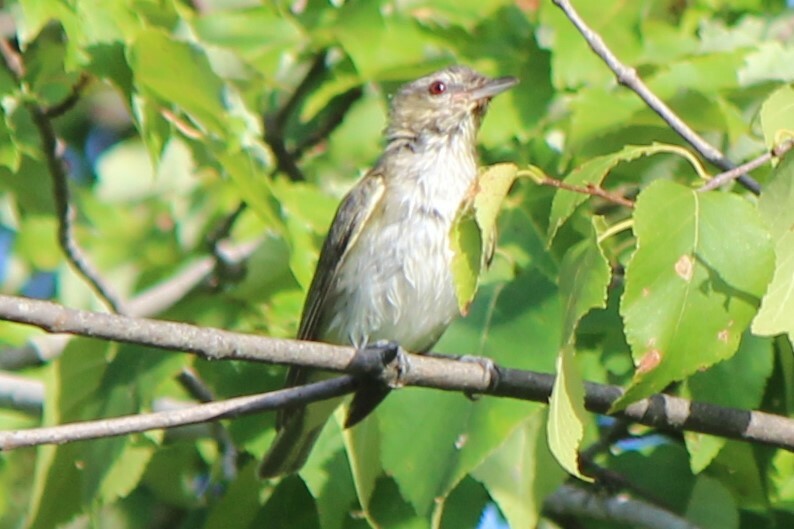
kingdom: Animalia
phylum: Chordata
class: Aves
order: Passeriformes
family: Vireonidae
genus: Vireo
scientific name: Vireo olivaceus
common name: Red-eyed vireo
